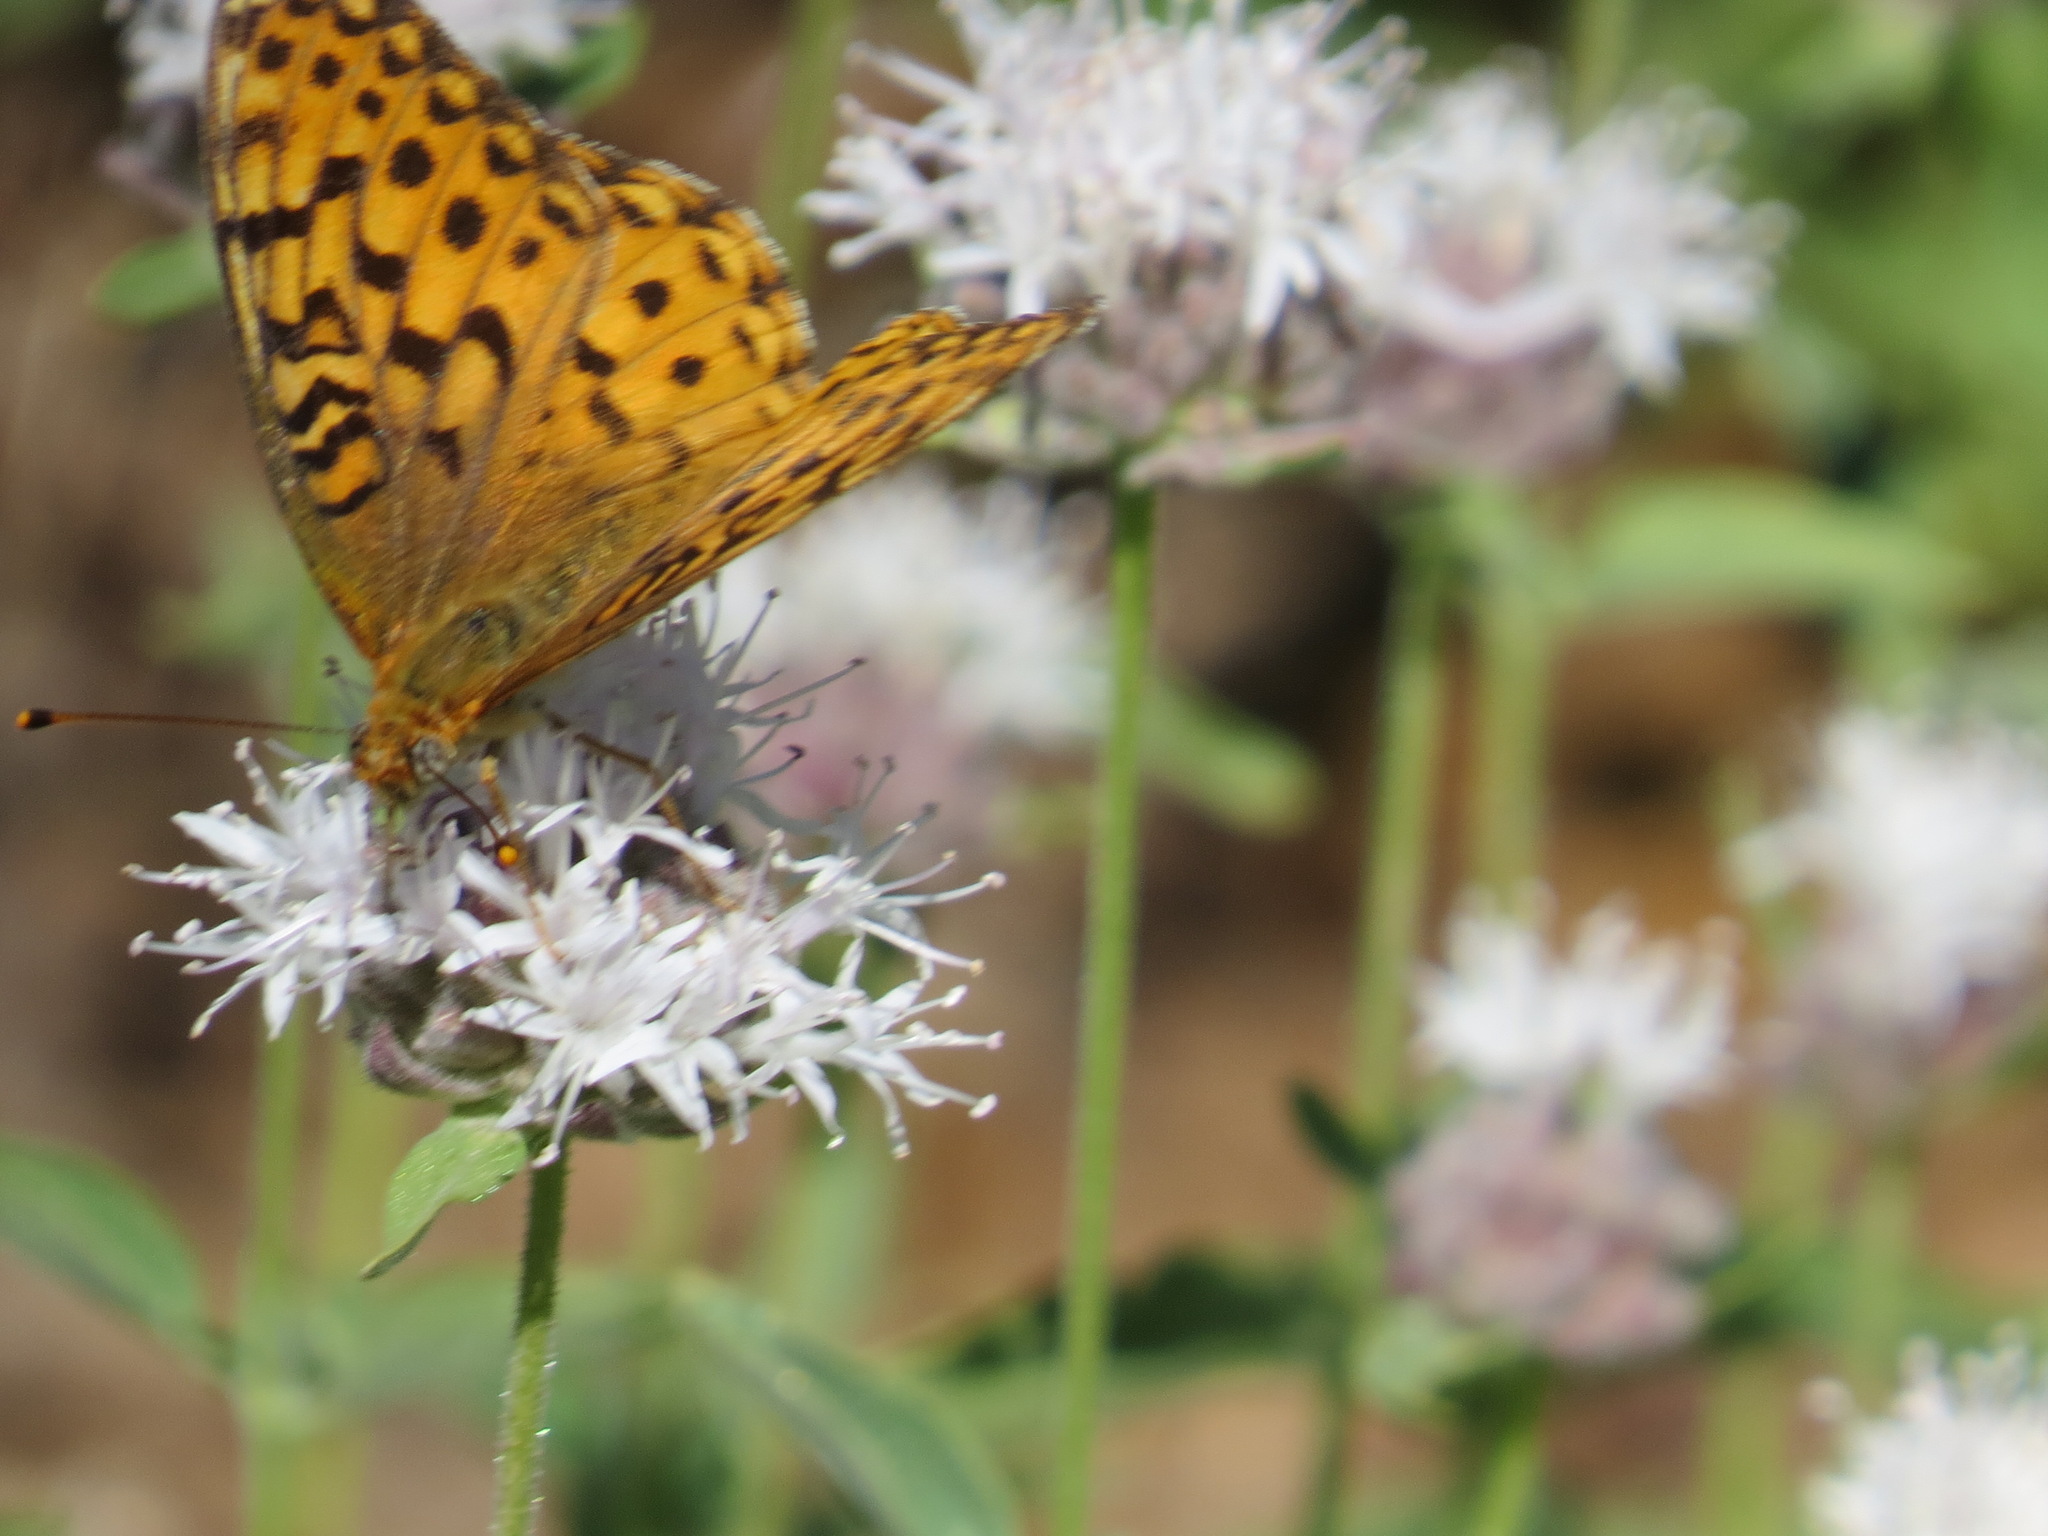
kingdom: Animalia
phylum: Arthropoda
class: Insecta
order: Lepidoptera
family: Nymphalidae
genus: Speyeria
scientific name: Speyeria egleis
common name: Great basin fritillary
